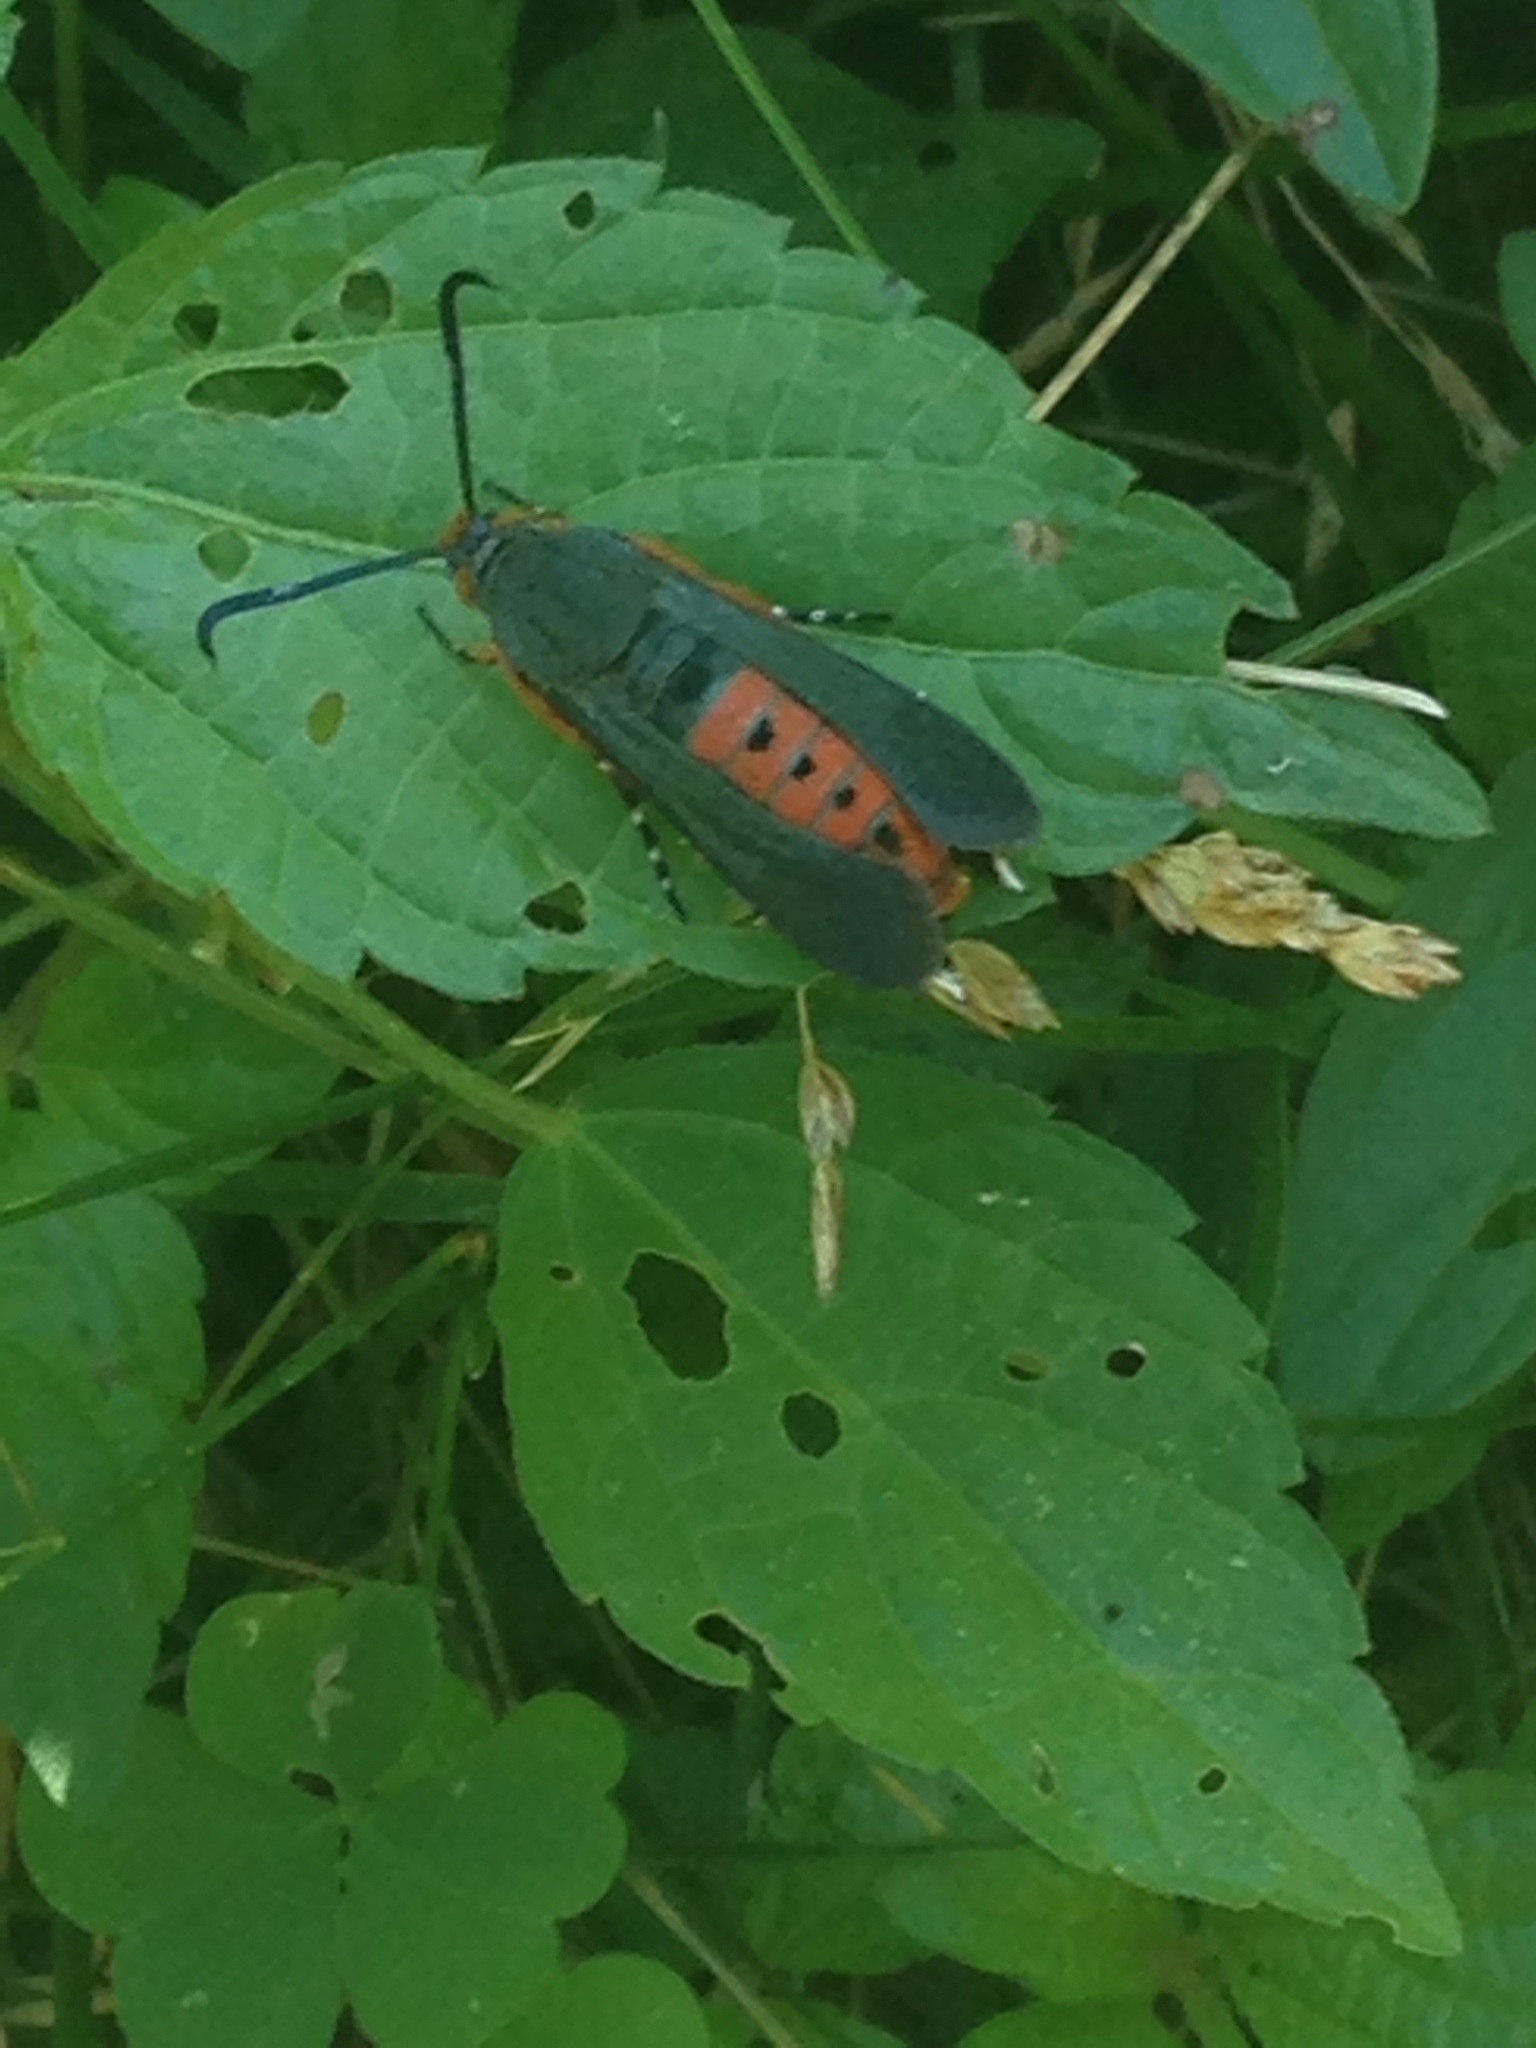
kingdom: Animalia
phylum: Arthropoda
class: Insecta
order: Lepidoptera
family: Sesiidae
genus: Eichlinia
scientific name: Eichlinia cucurbitae
